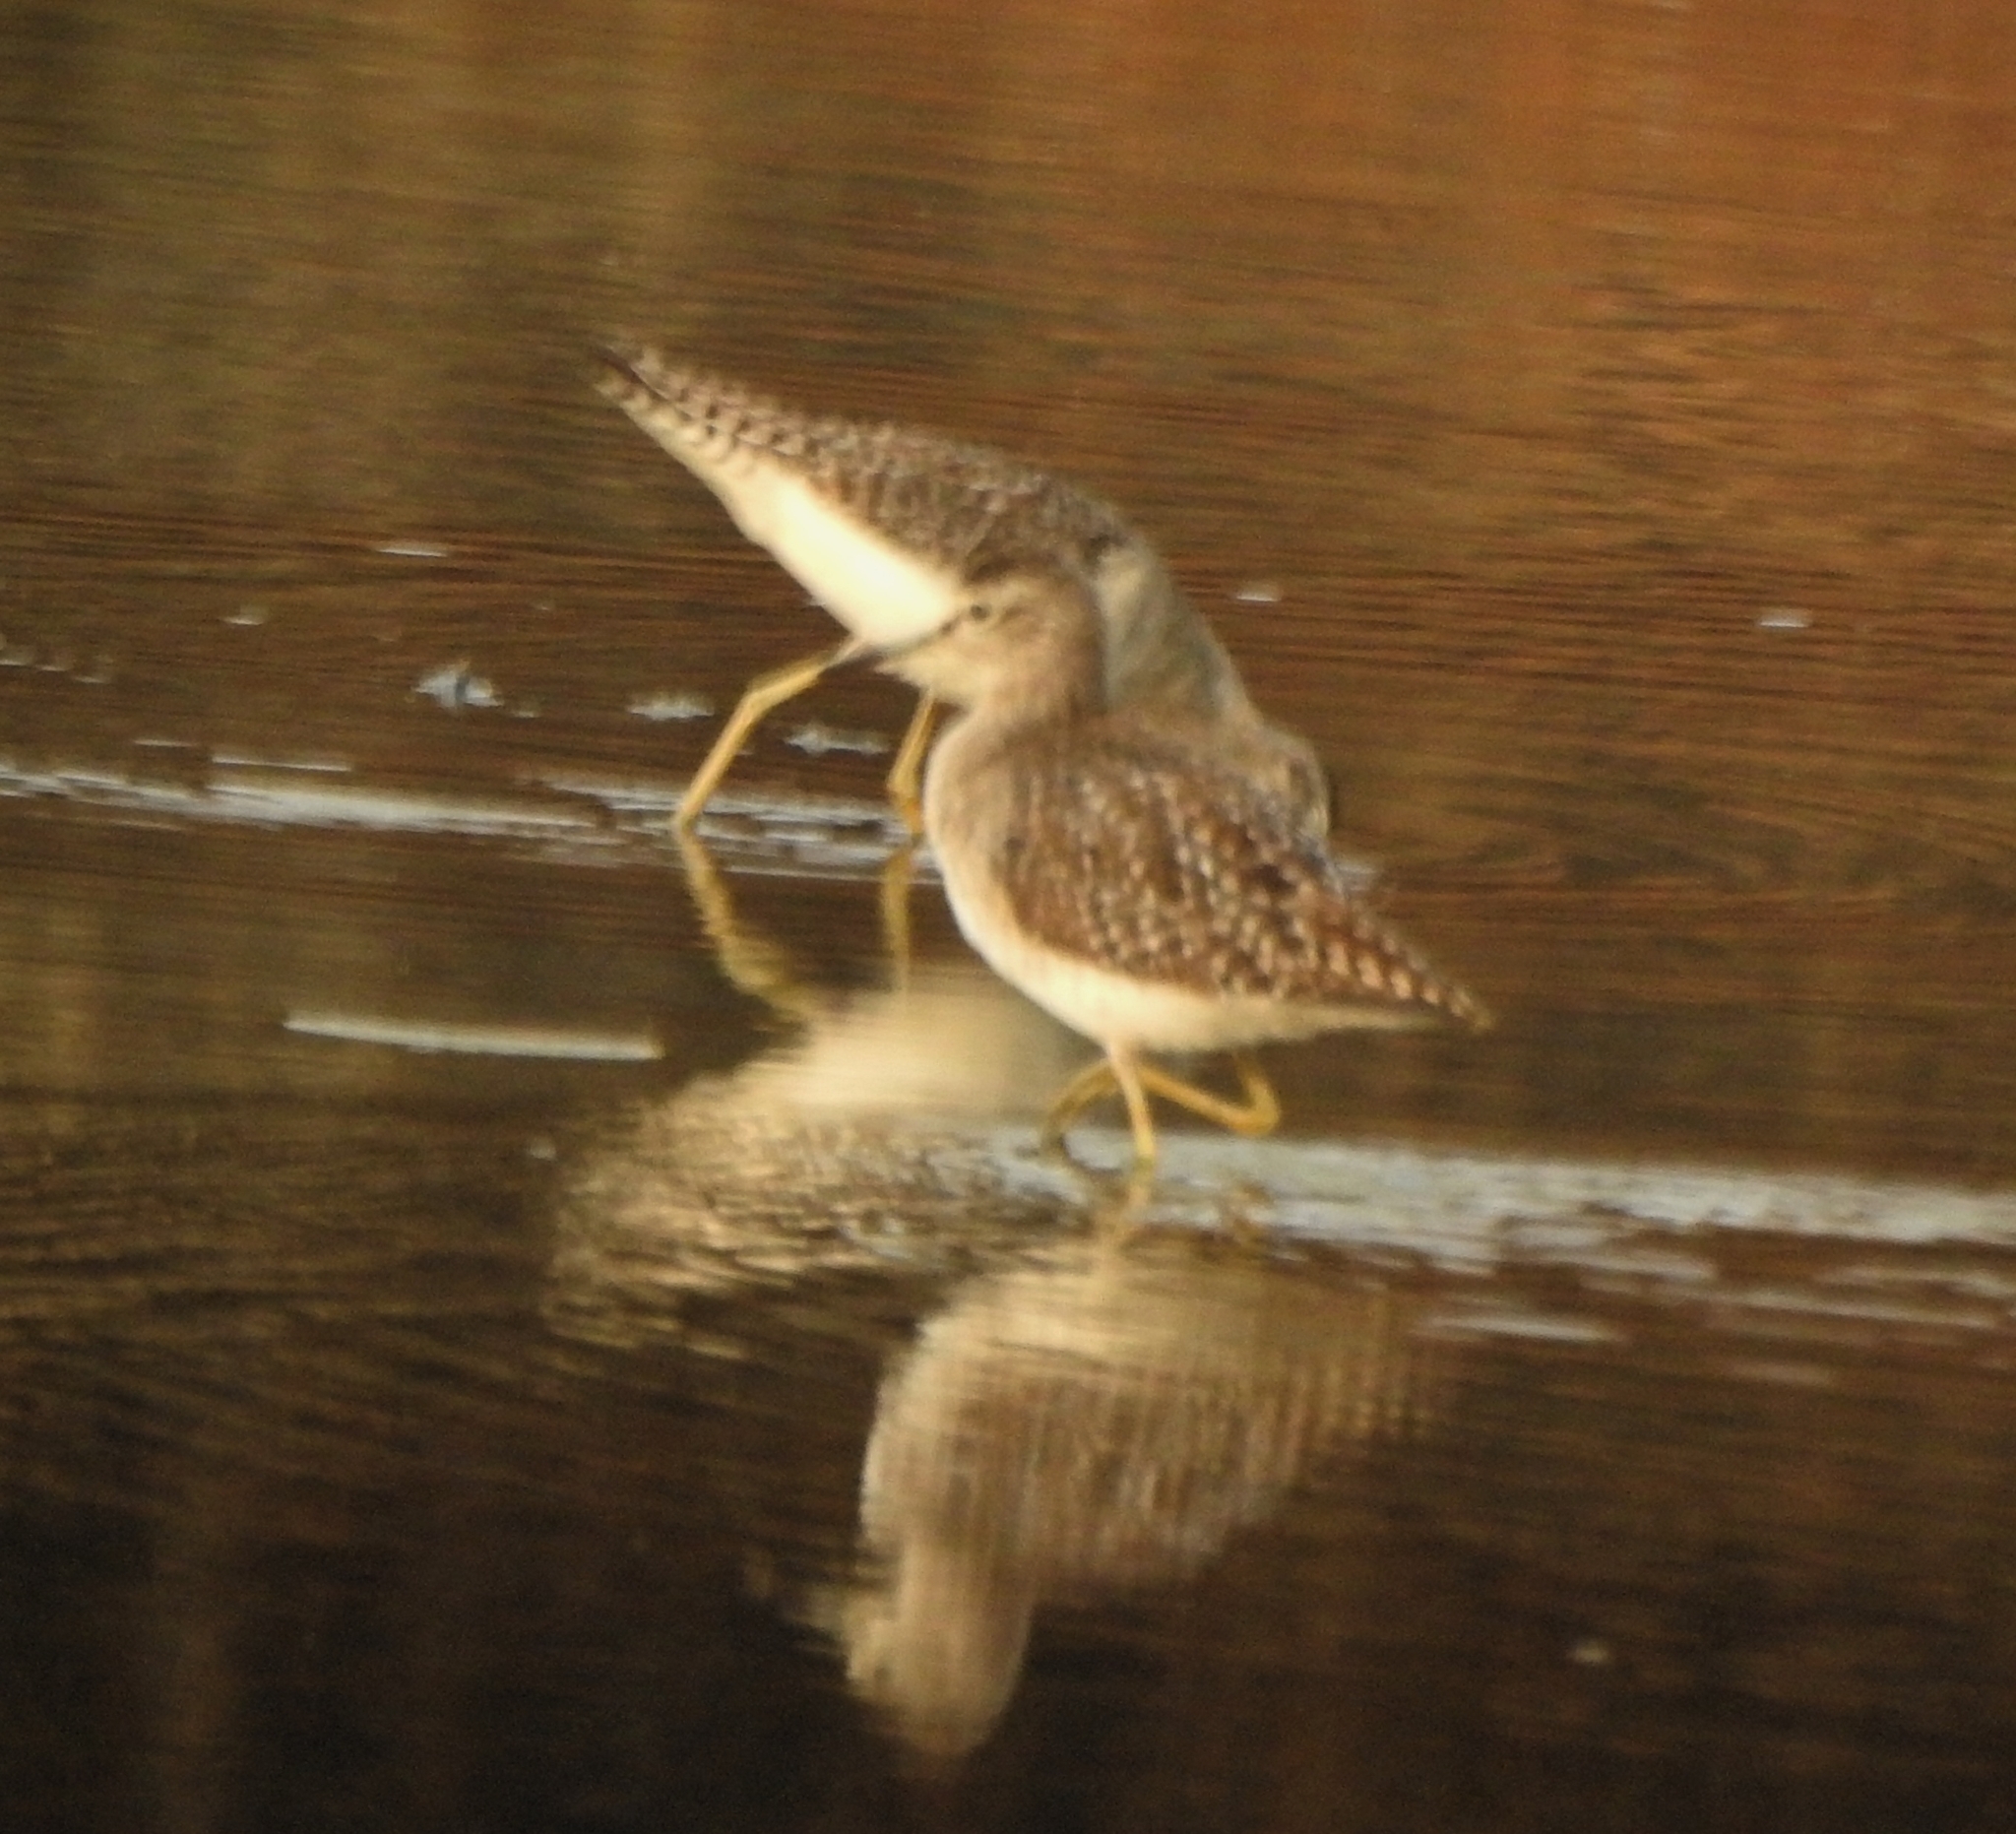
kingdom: Animalia
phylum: Chordata
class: Aves
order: Charadriiformes
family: Scolopacidae
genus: Tringa
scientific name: Tringa glareola
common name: Wood sandpiper
